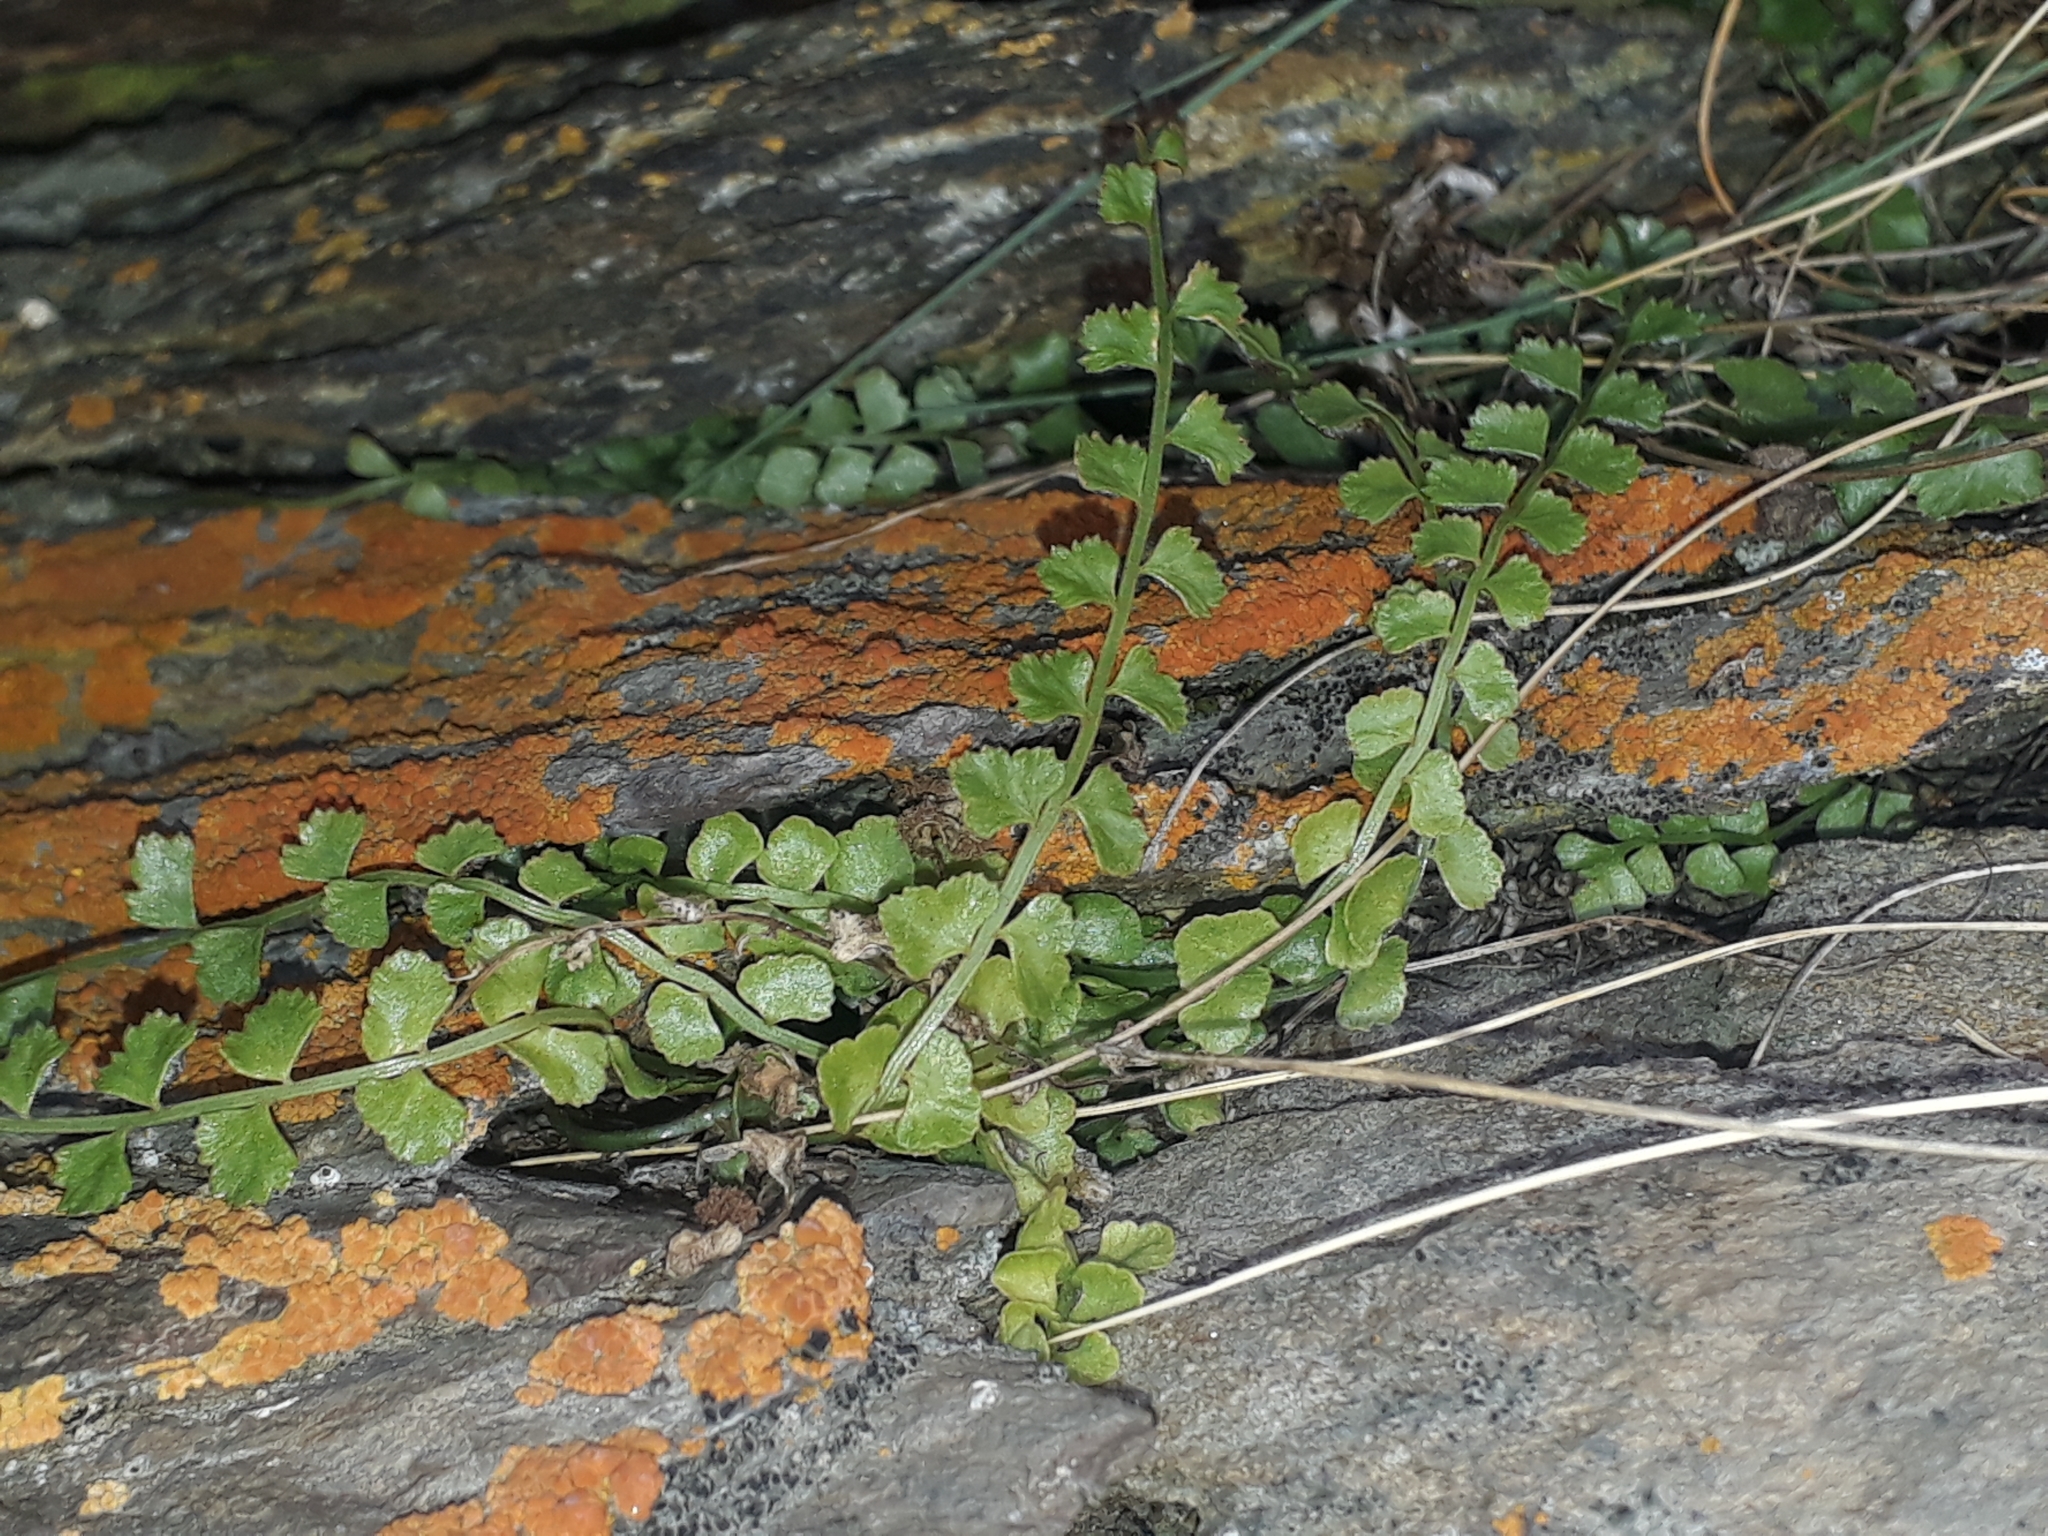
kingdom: Plantae
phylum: Tracheophyta
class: Polypodiopsida
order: Polypodiales
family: Aspleniaceae
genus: Asplenium
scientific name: Asplenium flabellifolium
